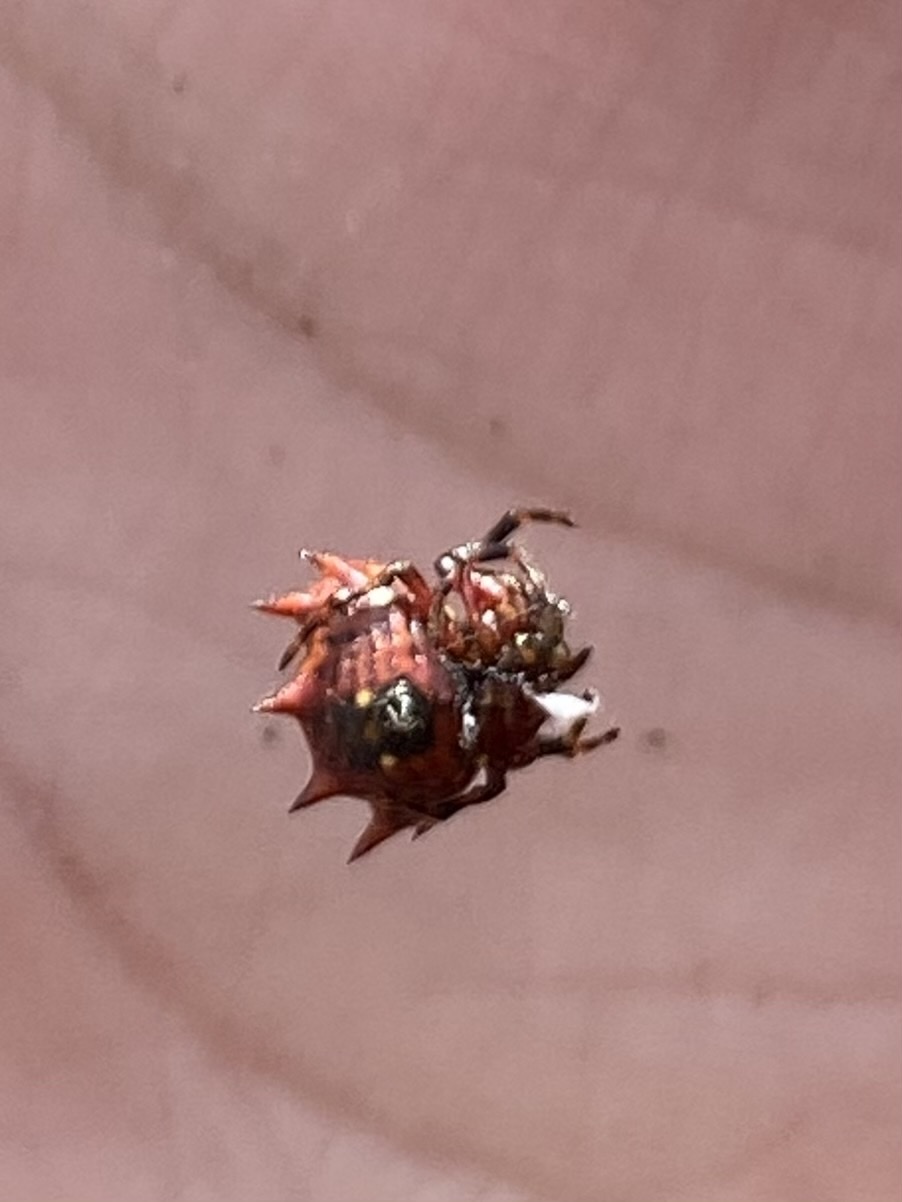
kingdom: Animalia
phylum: Arthropoda
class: Arachnida
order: Araneae
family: Araneidae
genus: Gasteracantha
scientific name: Gasteracantha cancriformis
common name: Orb weavers
